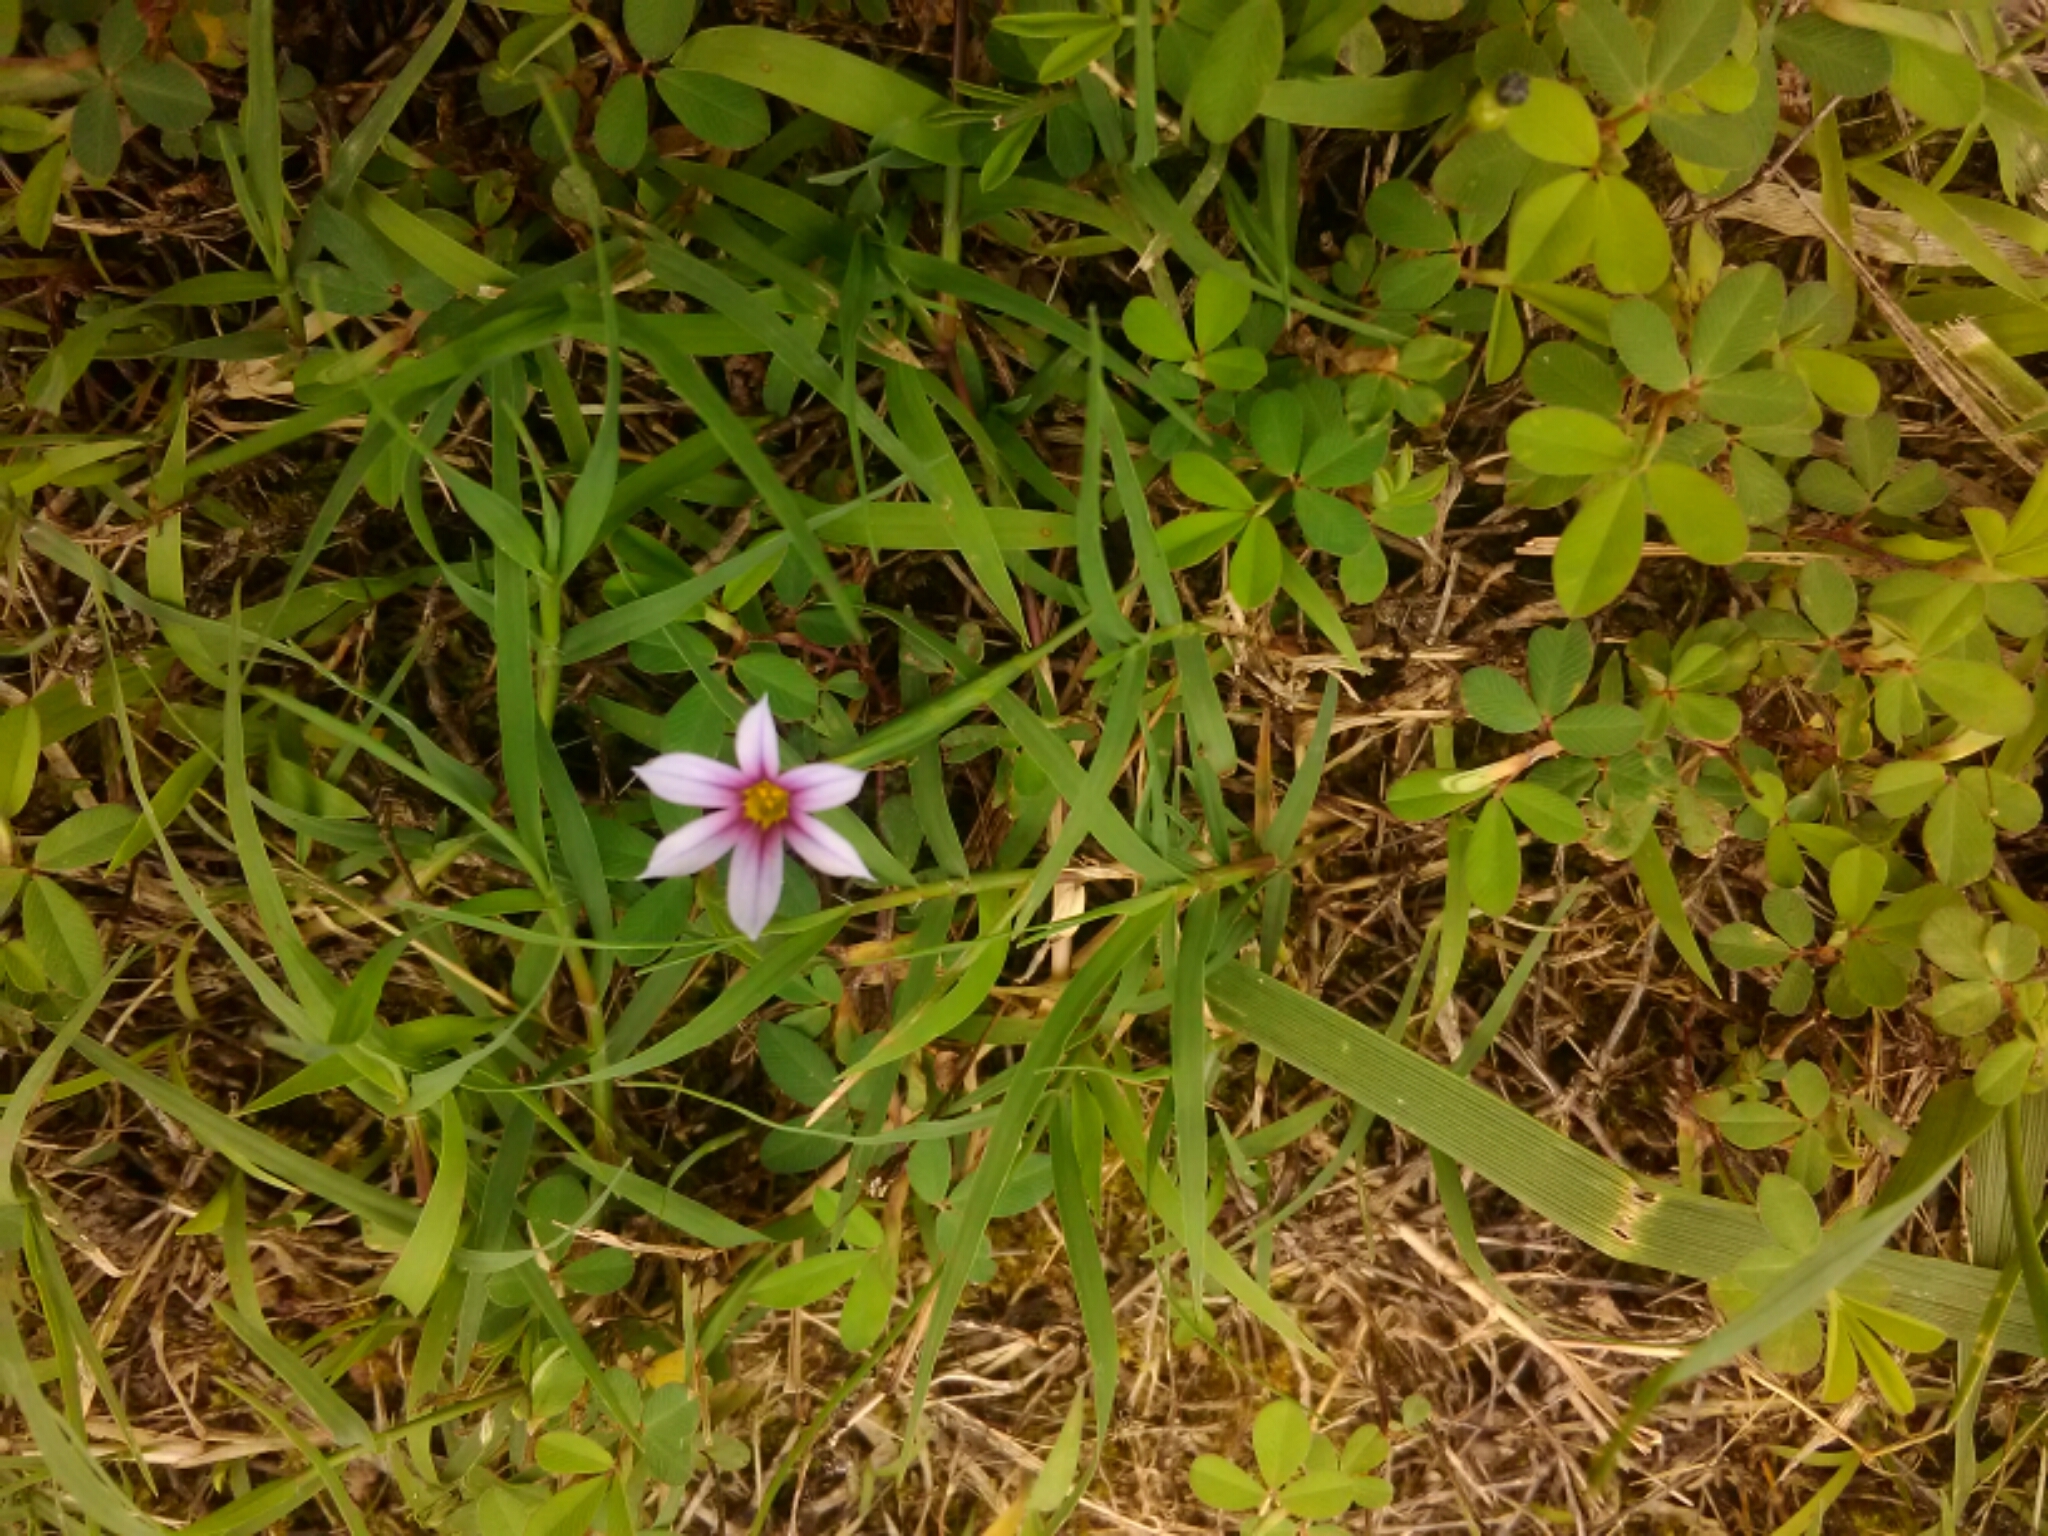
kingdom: Plantae
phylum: Tracheophyta
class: Liliopsida
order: Asparagales
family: Iridaceae
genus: Sisyrinchium
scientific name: Sisyrinchium micranthum
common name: Bermuda pigroot
